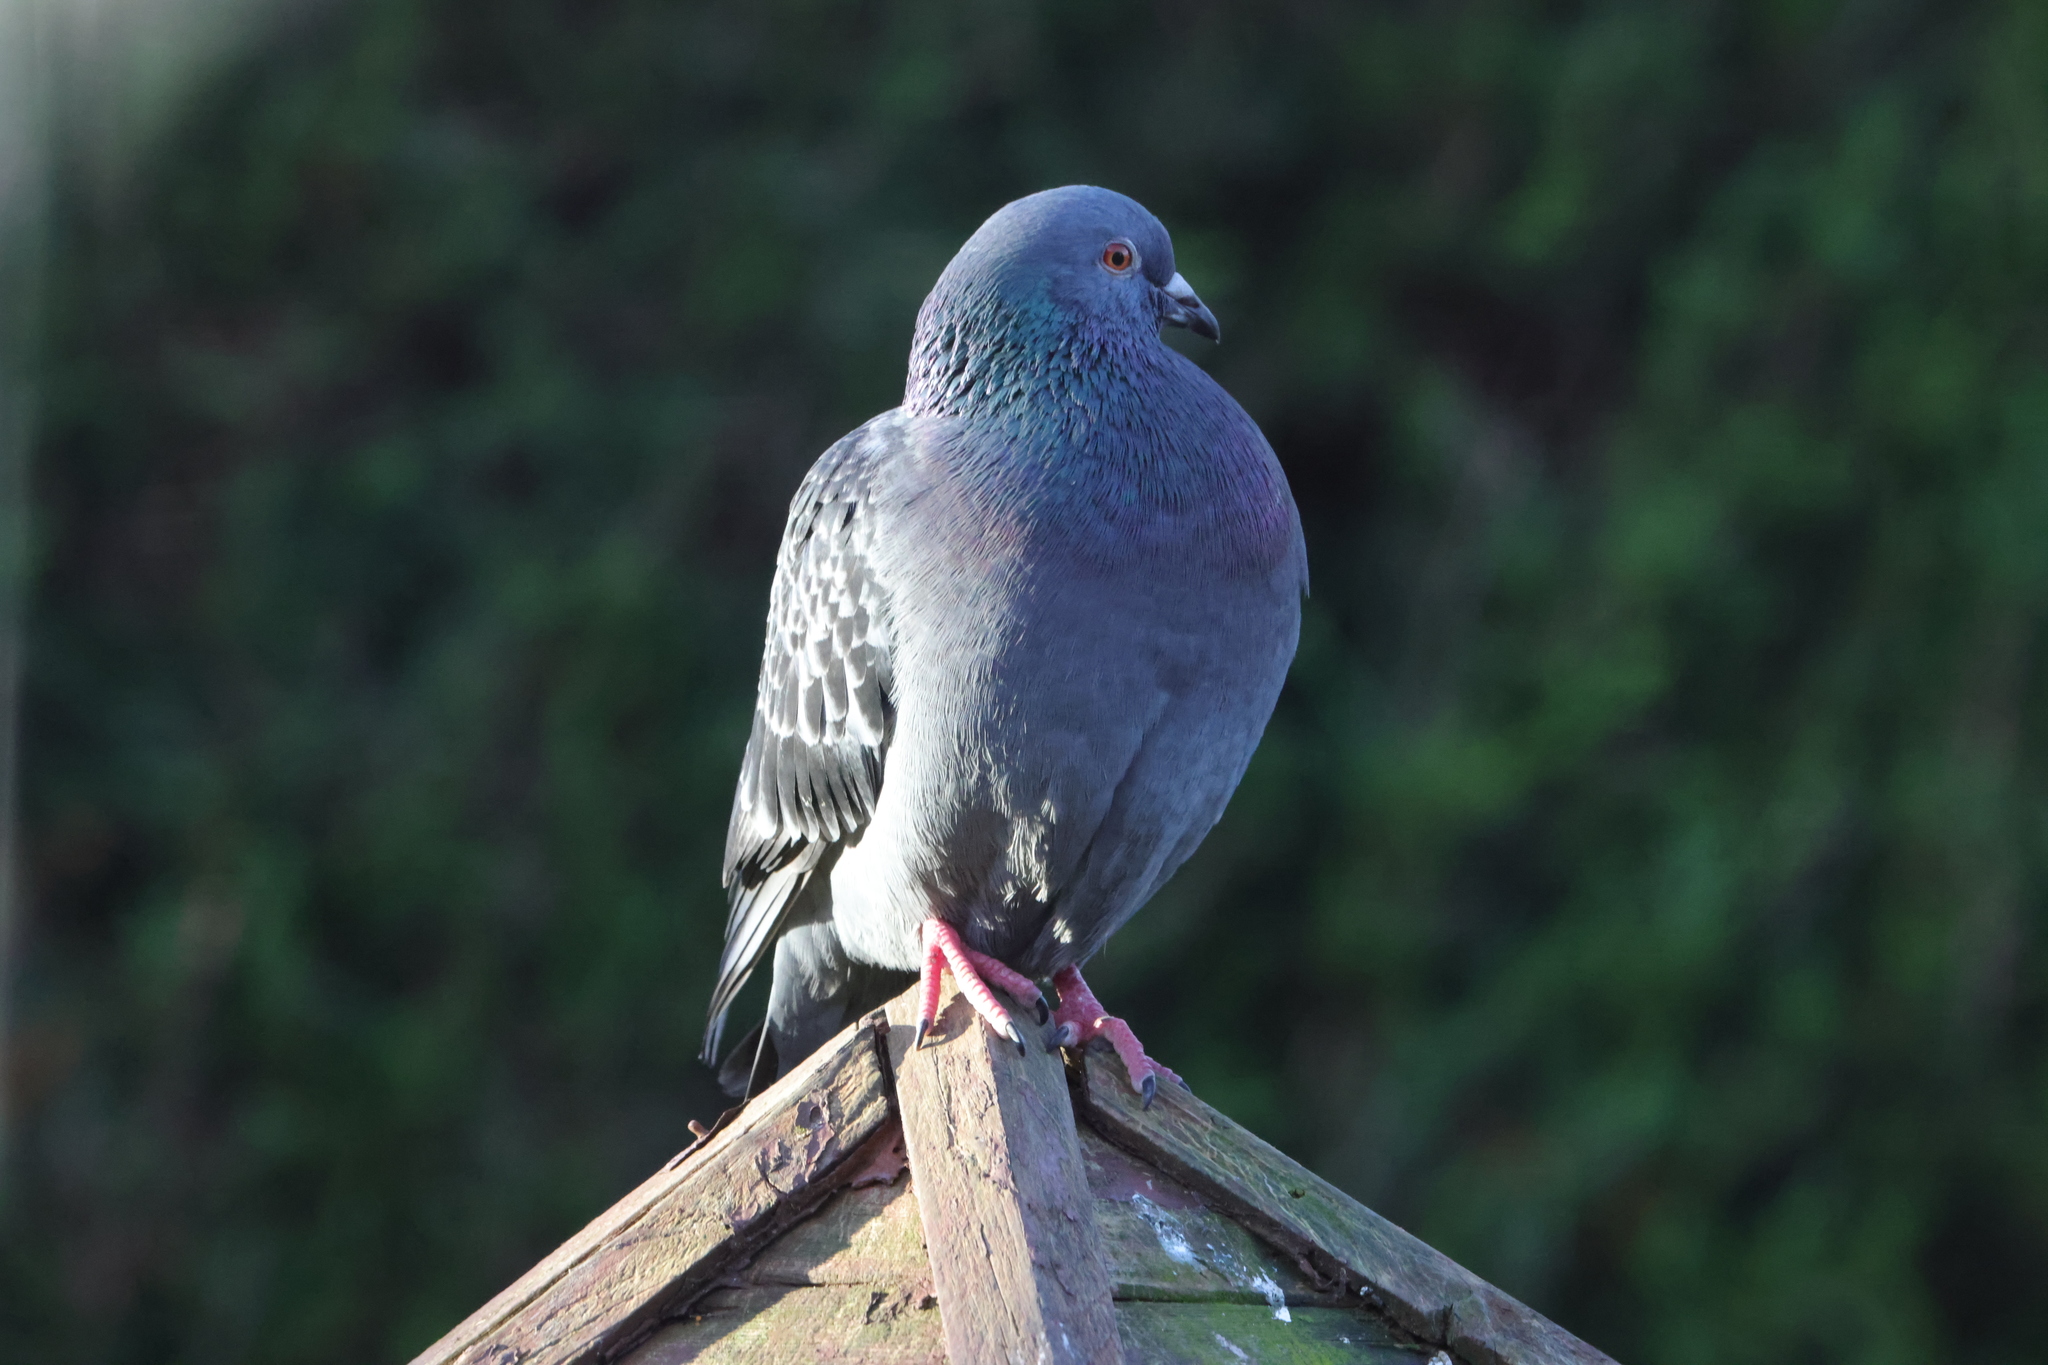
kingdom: Animalia
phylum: Chordata
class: Aves
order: Columbiformes
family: Columbidae
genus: Columba
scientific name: Columba livia
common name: Rock pigeon
